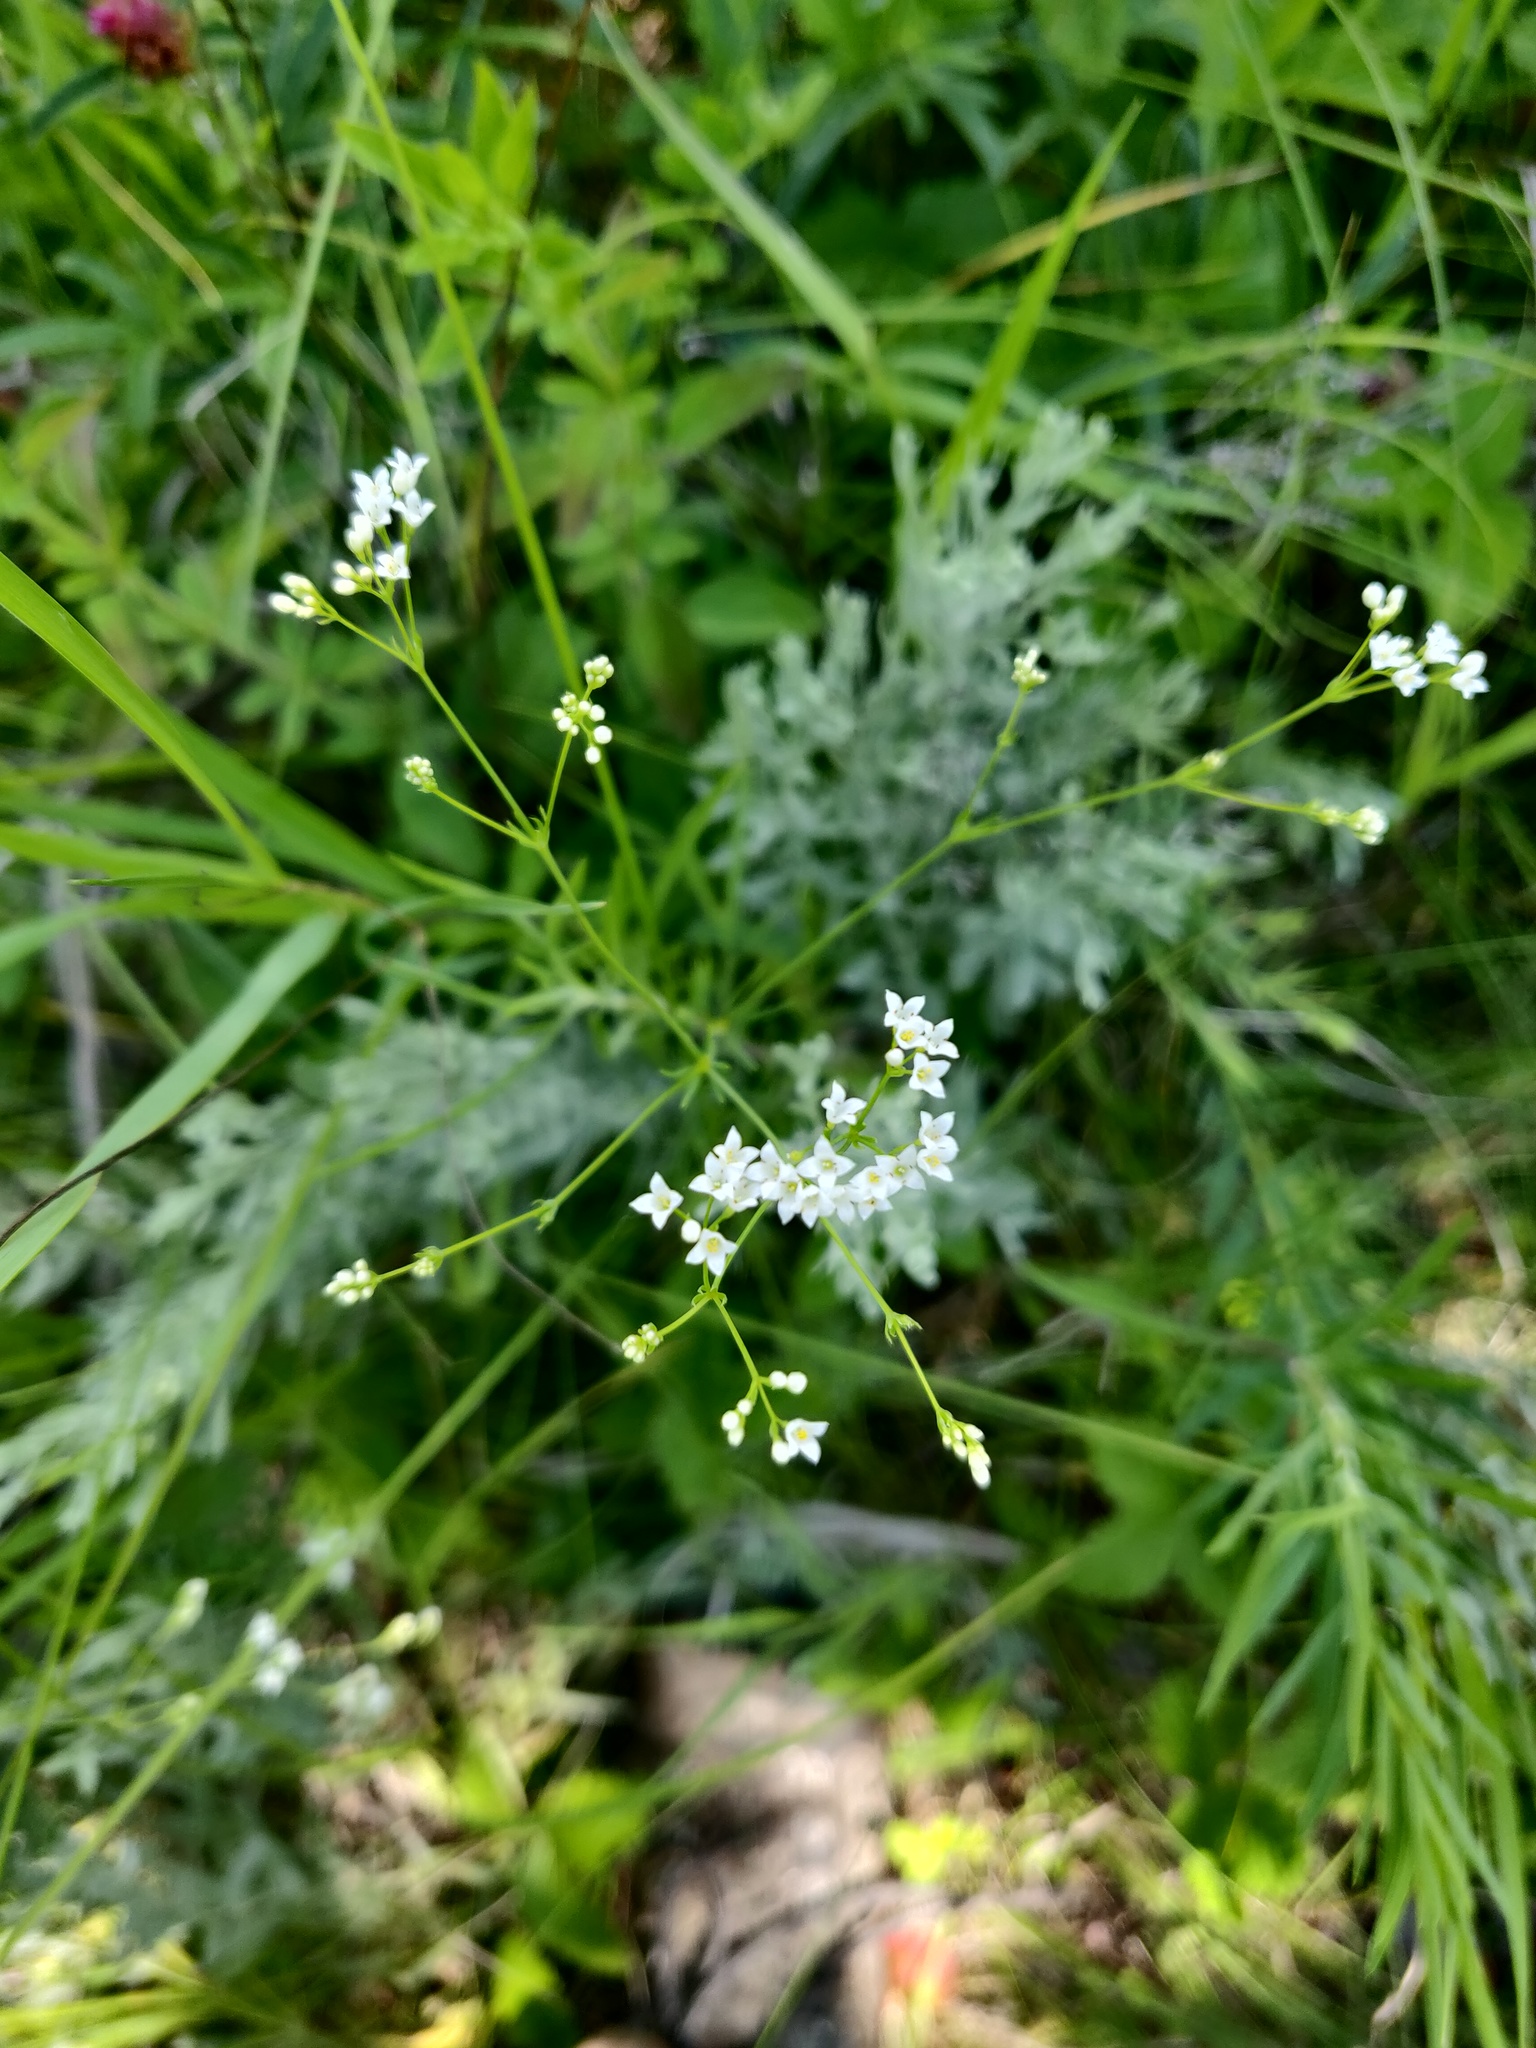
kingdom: Plantae
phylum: Tracheophyta
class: Magnoliopsida
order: Gentianales
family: Rubiaceae
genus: Galium
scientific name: Galium octonarium
